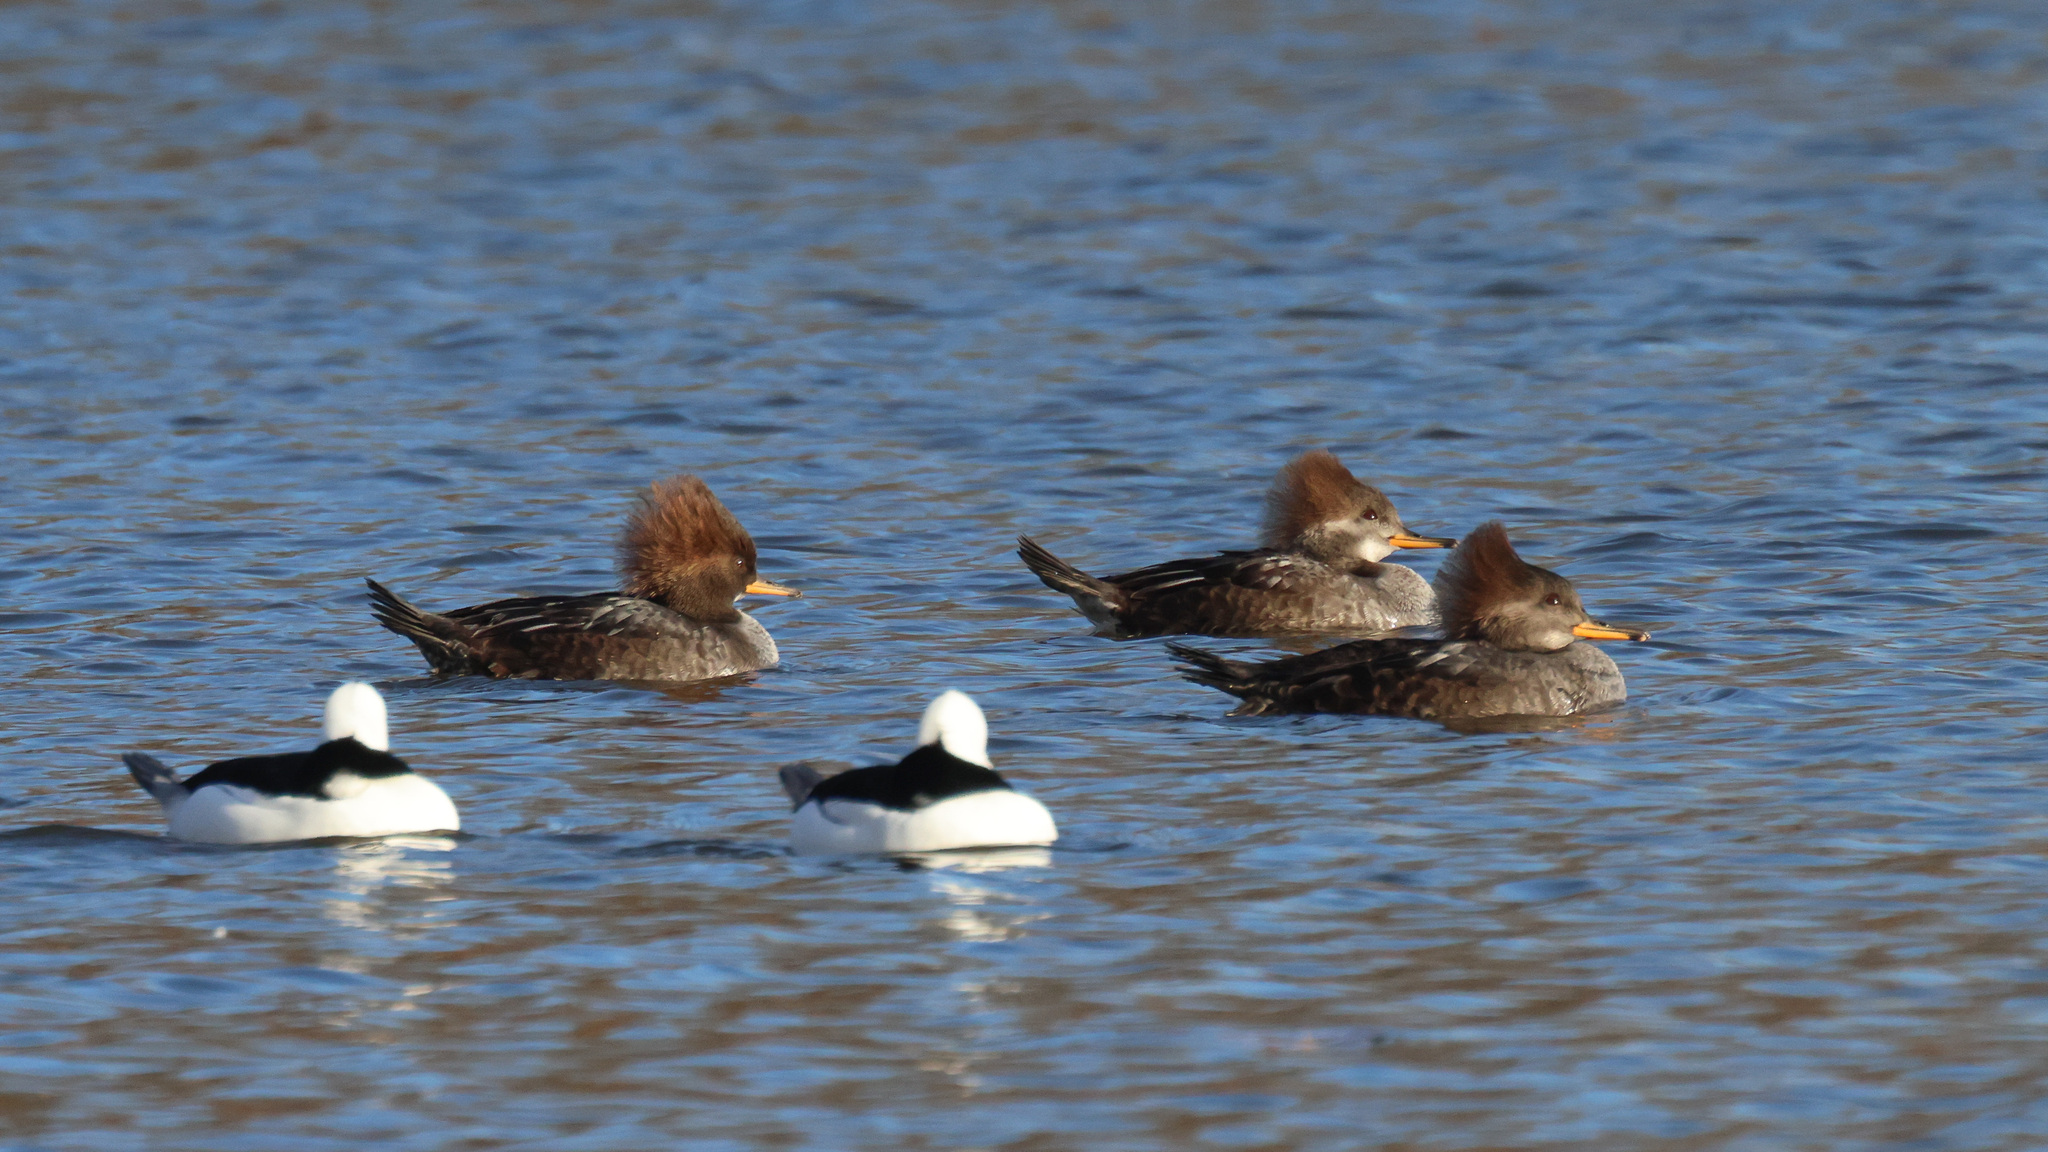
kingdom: Animalia
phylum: Chordata
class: Aves
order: Anseriformes
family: Anatidae
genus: Bucephala
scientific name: Bucephala albeola
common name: Bufflehead
